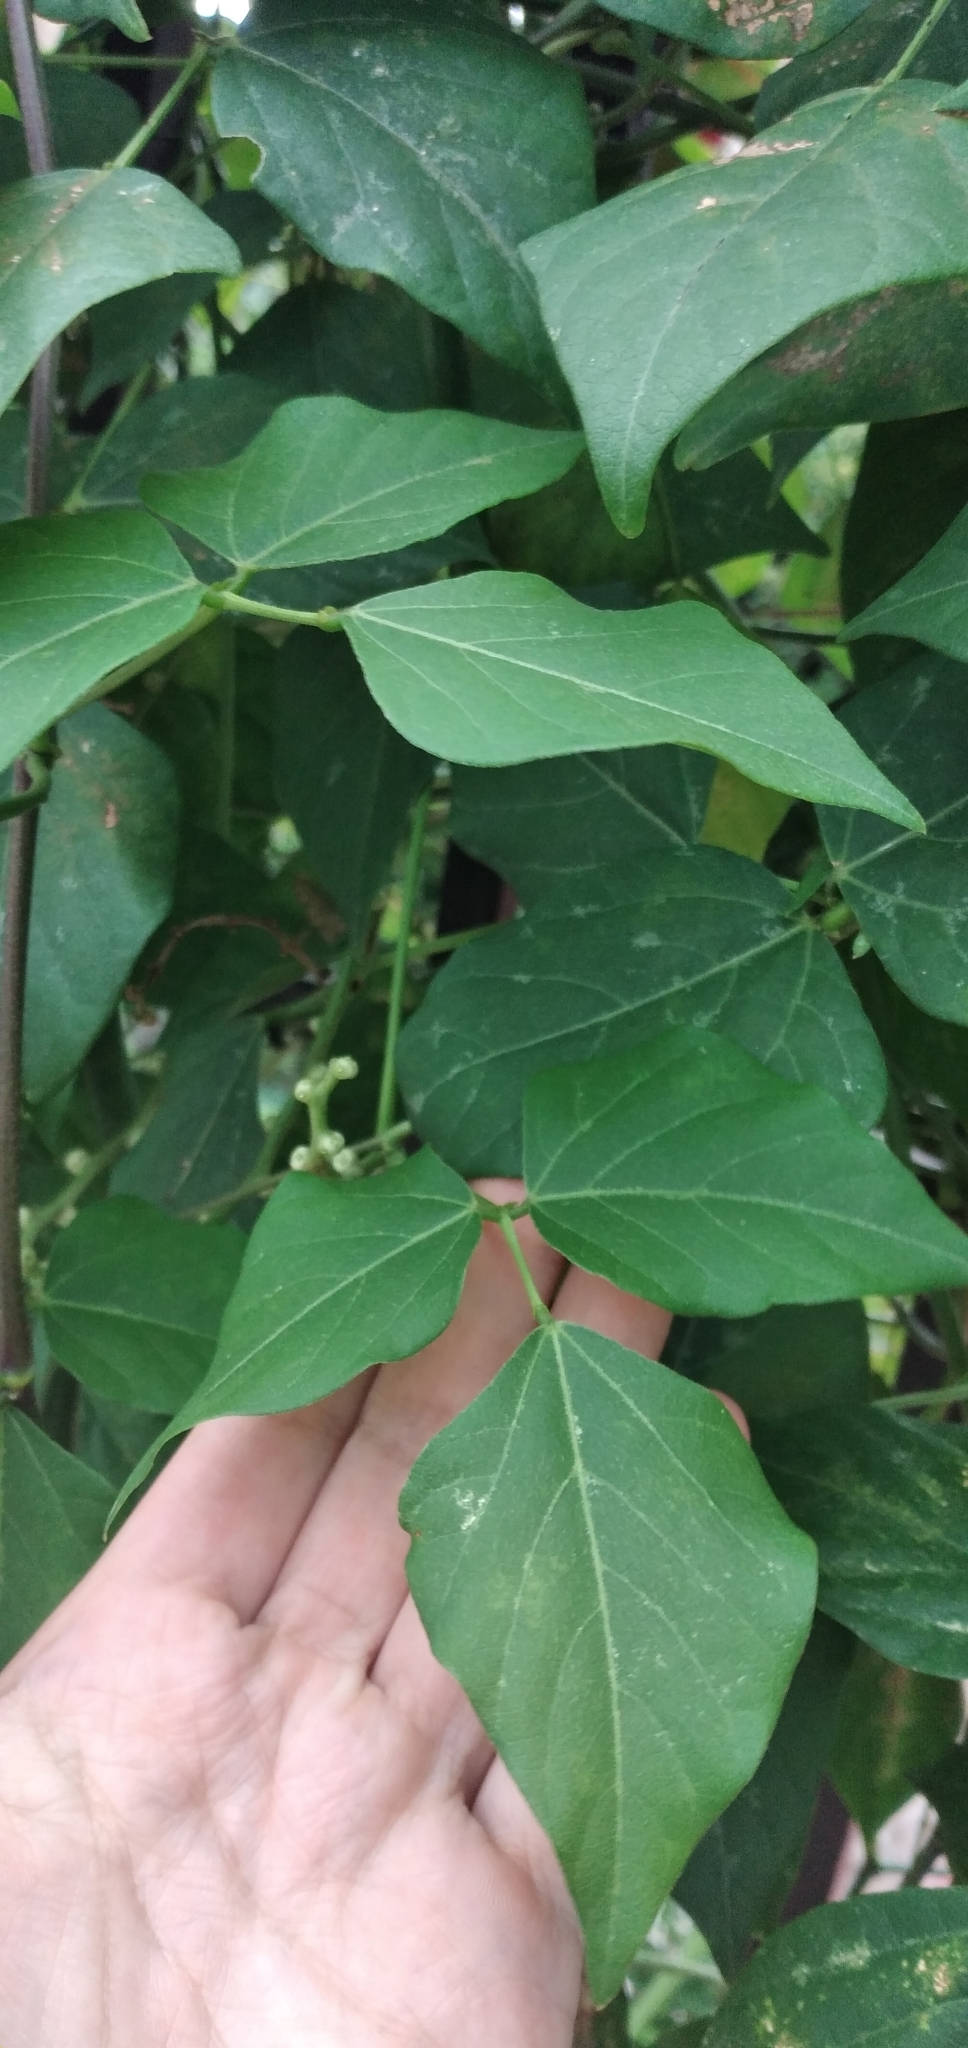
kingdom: Plantae
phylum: Tracheophyta
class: Magnoliopsida
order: Fabales
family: Fabaceae
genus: Cochliasanthus
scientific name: Cochliasanthus caracalla
